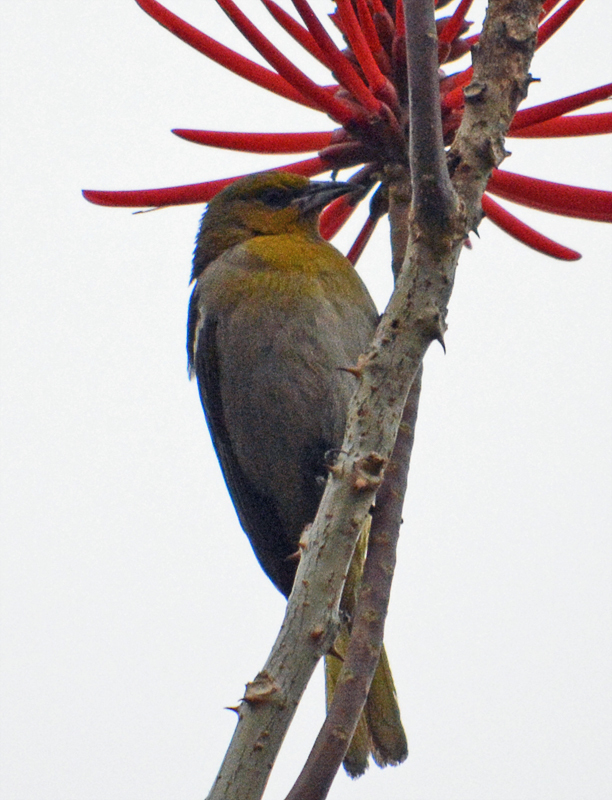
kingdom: Animalia
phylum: Chordata
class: Aves
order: Passeriformes
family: Icteridae
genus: Icterus
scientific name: Icterus abeillei
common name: Black-backed oriole
